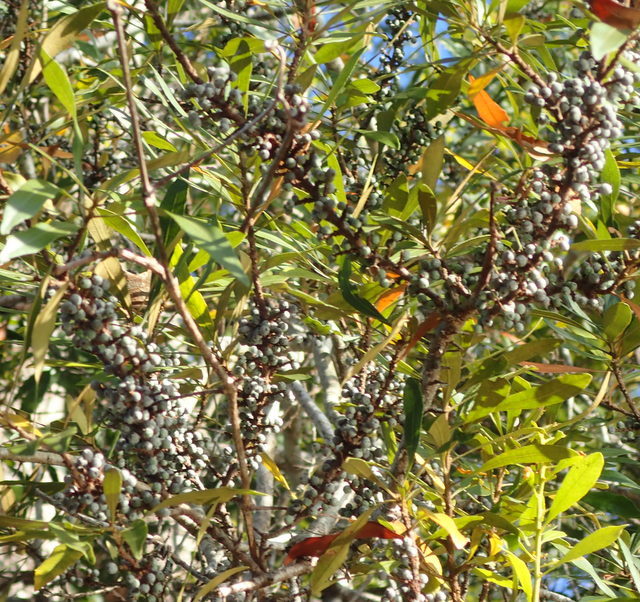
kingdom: Plantae
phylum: Tracheophyta
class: Magnoliopsida
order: Fagales
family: Myricaceae
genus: Morella
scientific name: Morella cerifera
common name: Wax myrtle
